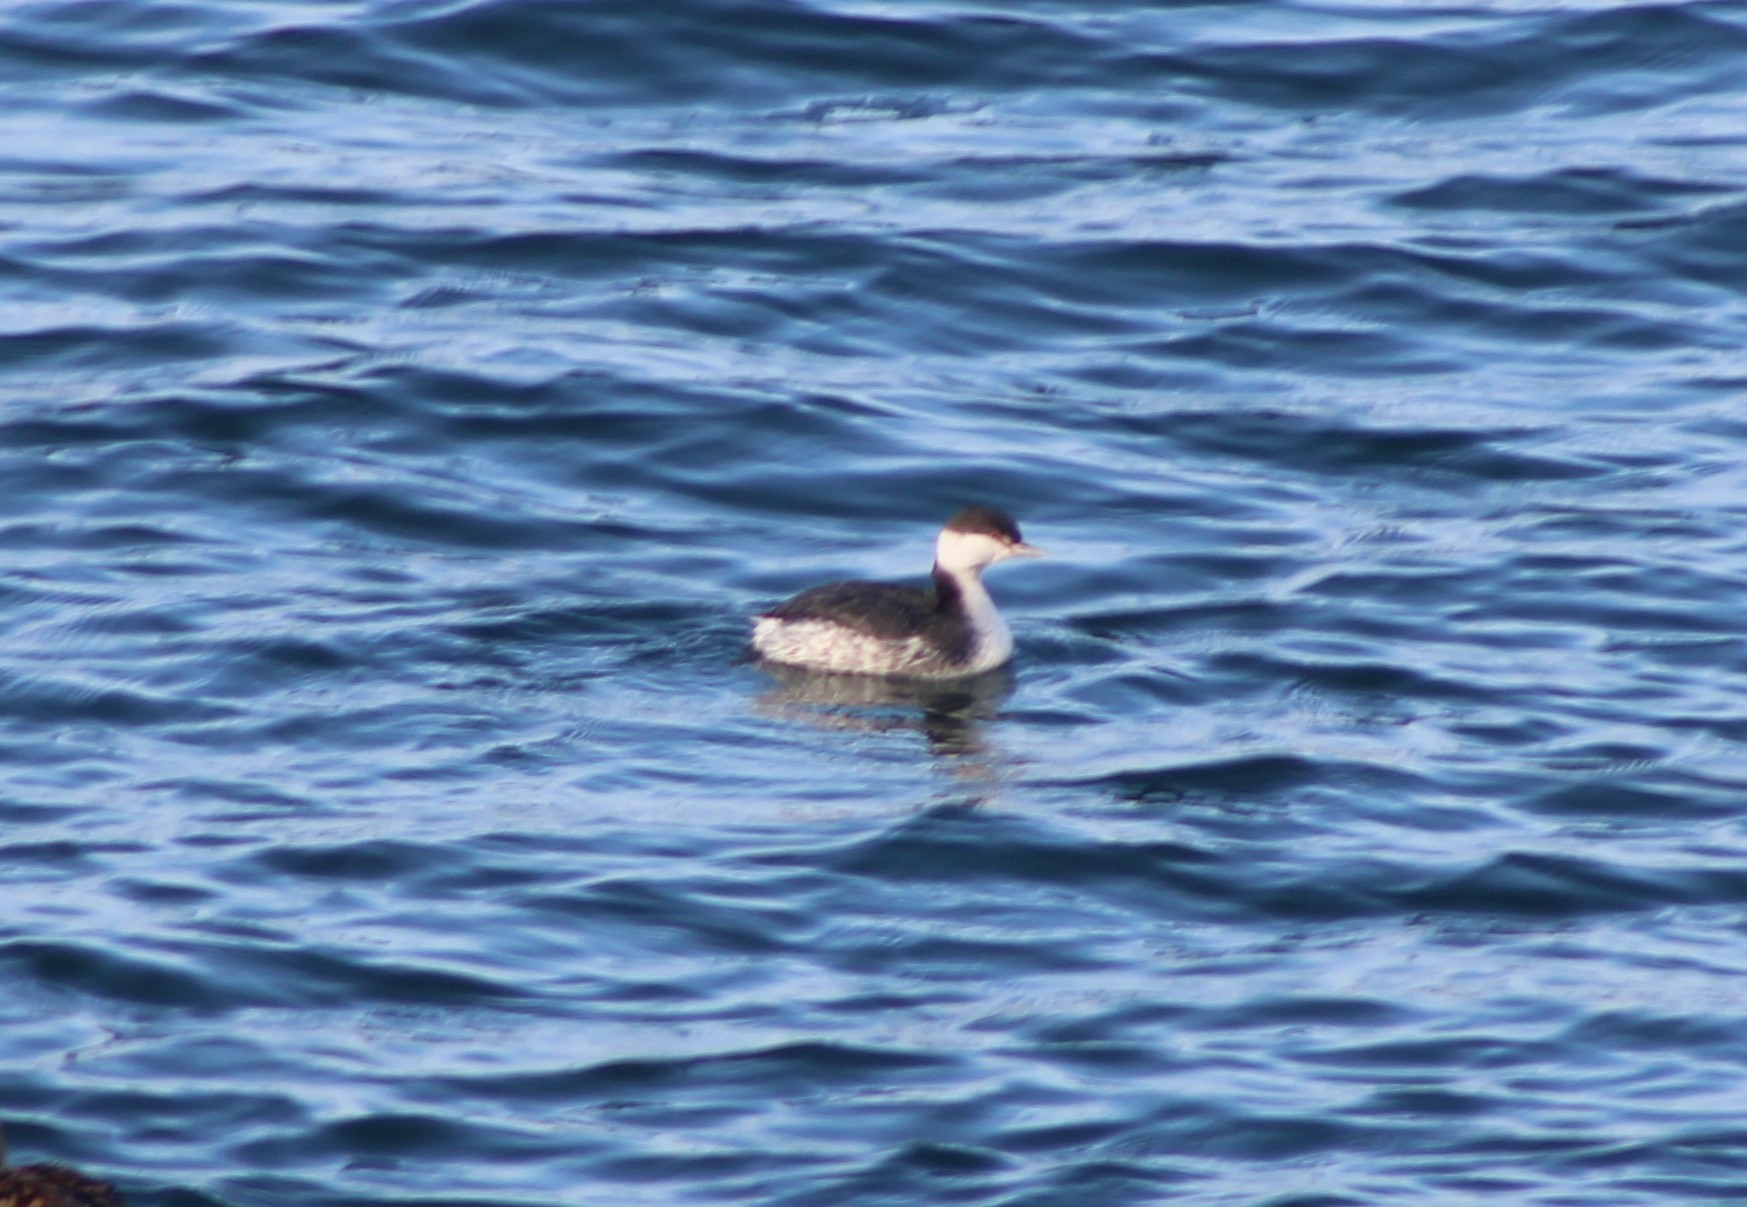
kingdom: Animalia
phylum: Chordata
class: Aves
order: Podicipediformes
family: Podicipedidae
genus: Podiceps
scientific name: Podiceps auritus
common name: Horned grebe
